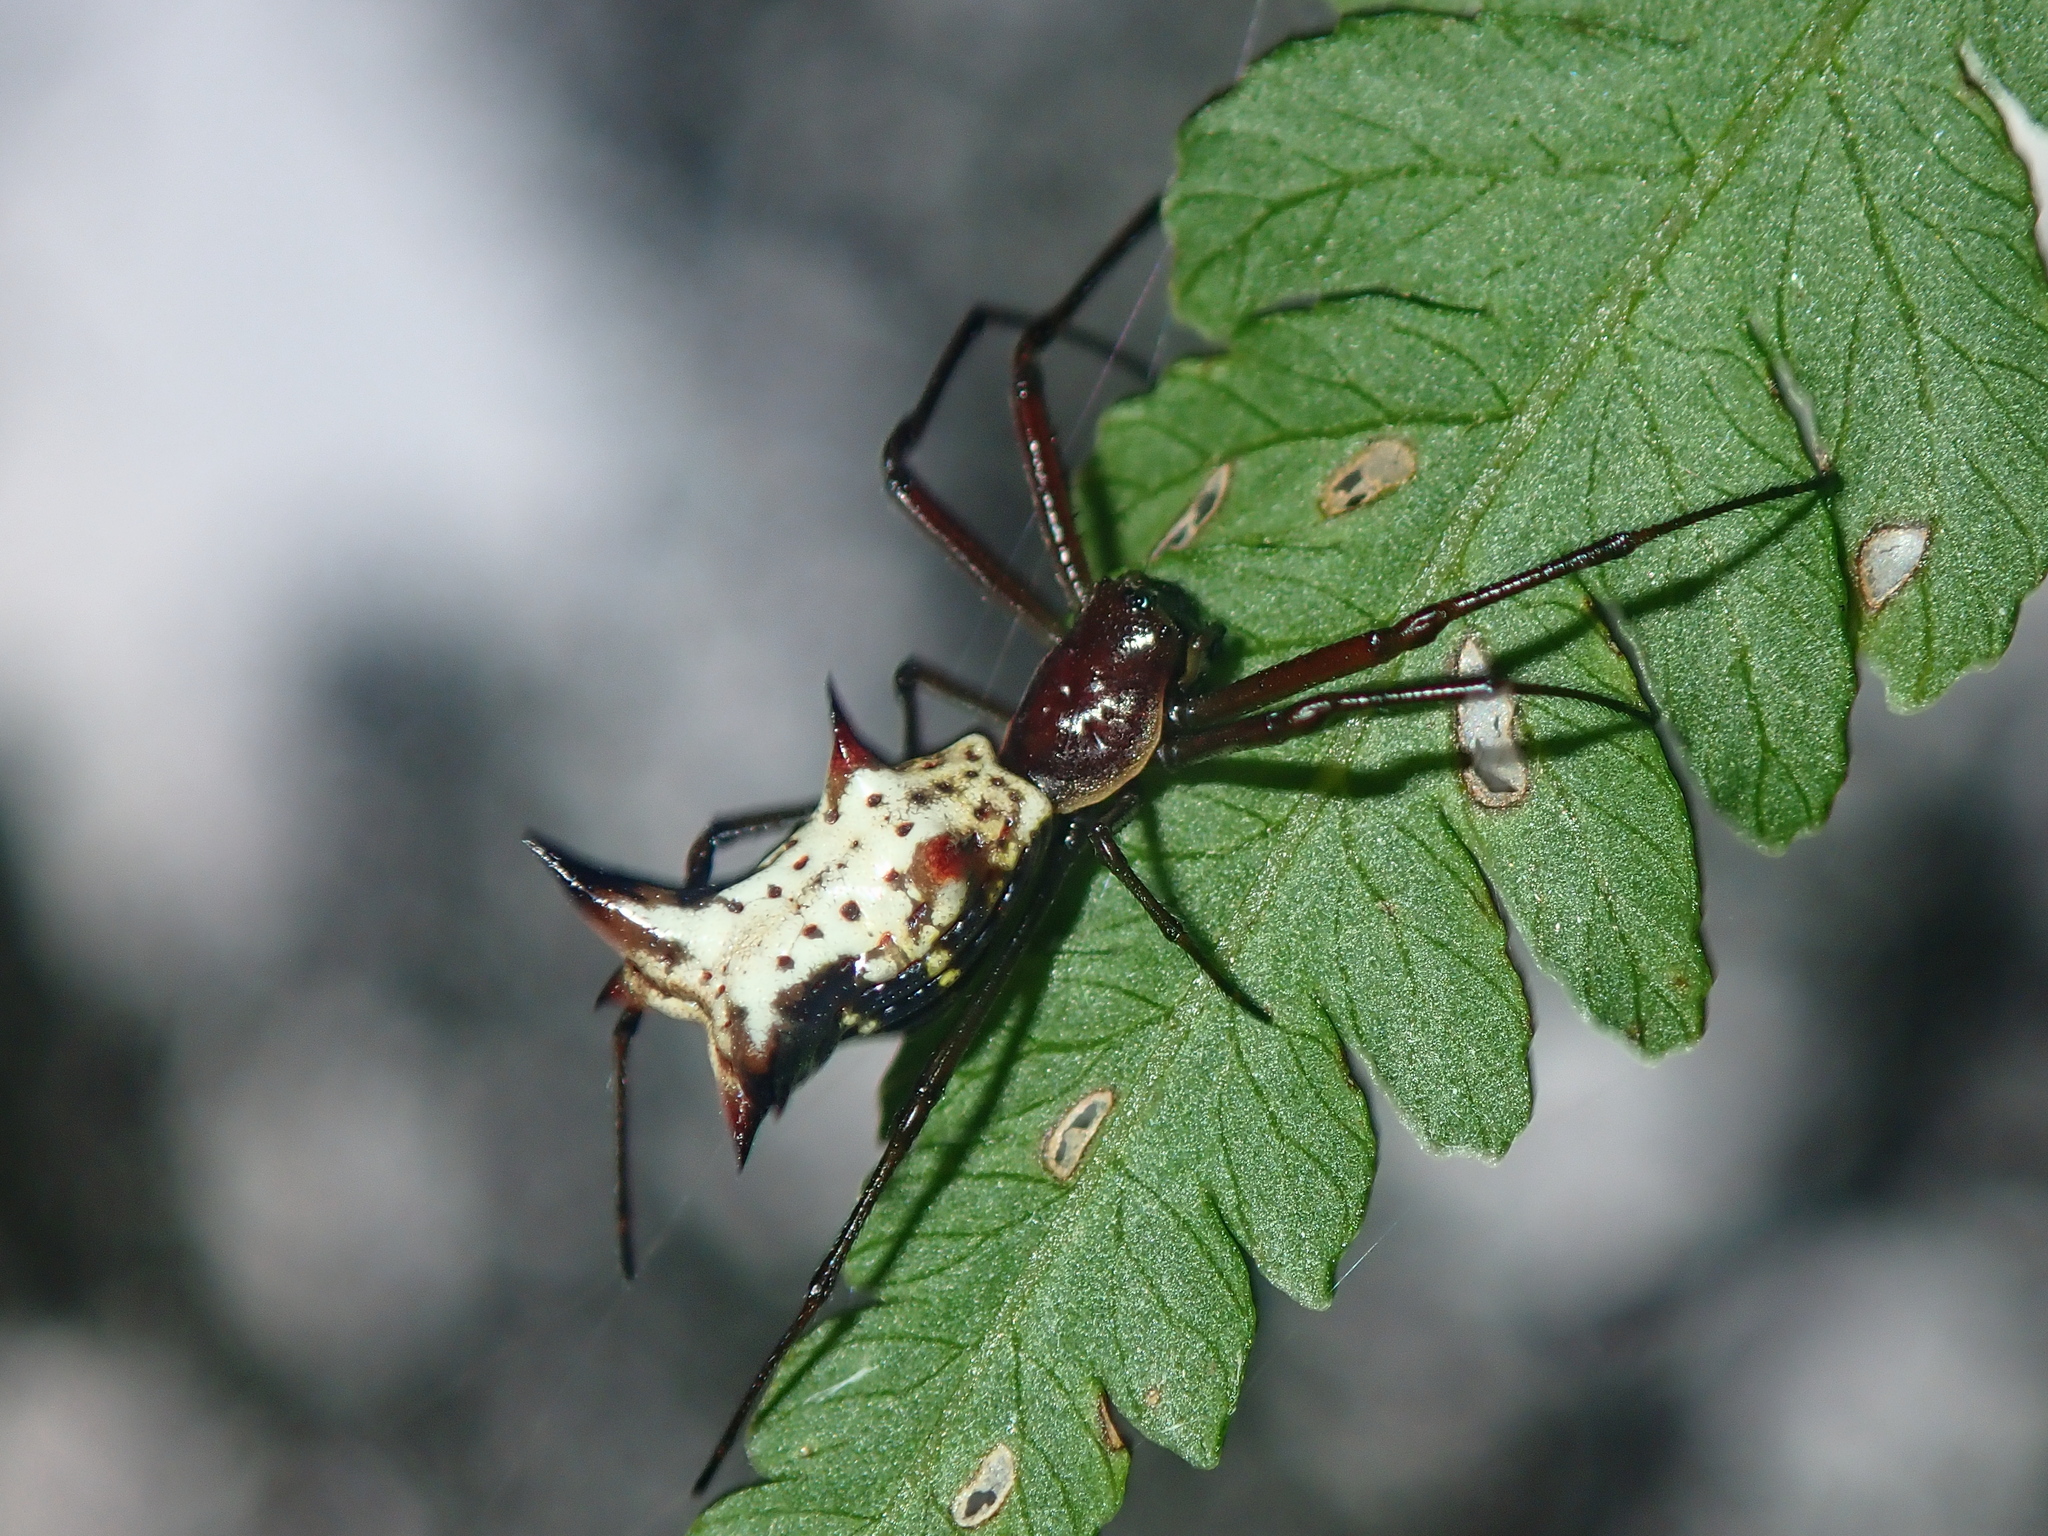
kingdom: Animalia
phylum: Arthropoda
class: Arachnida
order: Araneae
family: Araneidae
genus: Micrathena
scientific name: Micrathena nigrichelis
